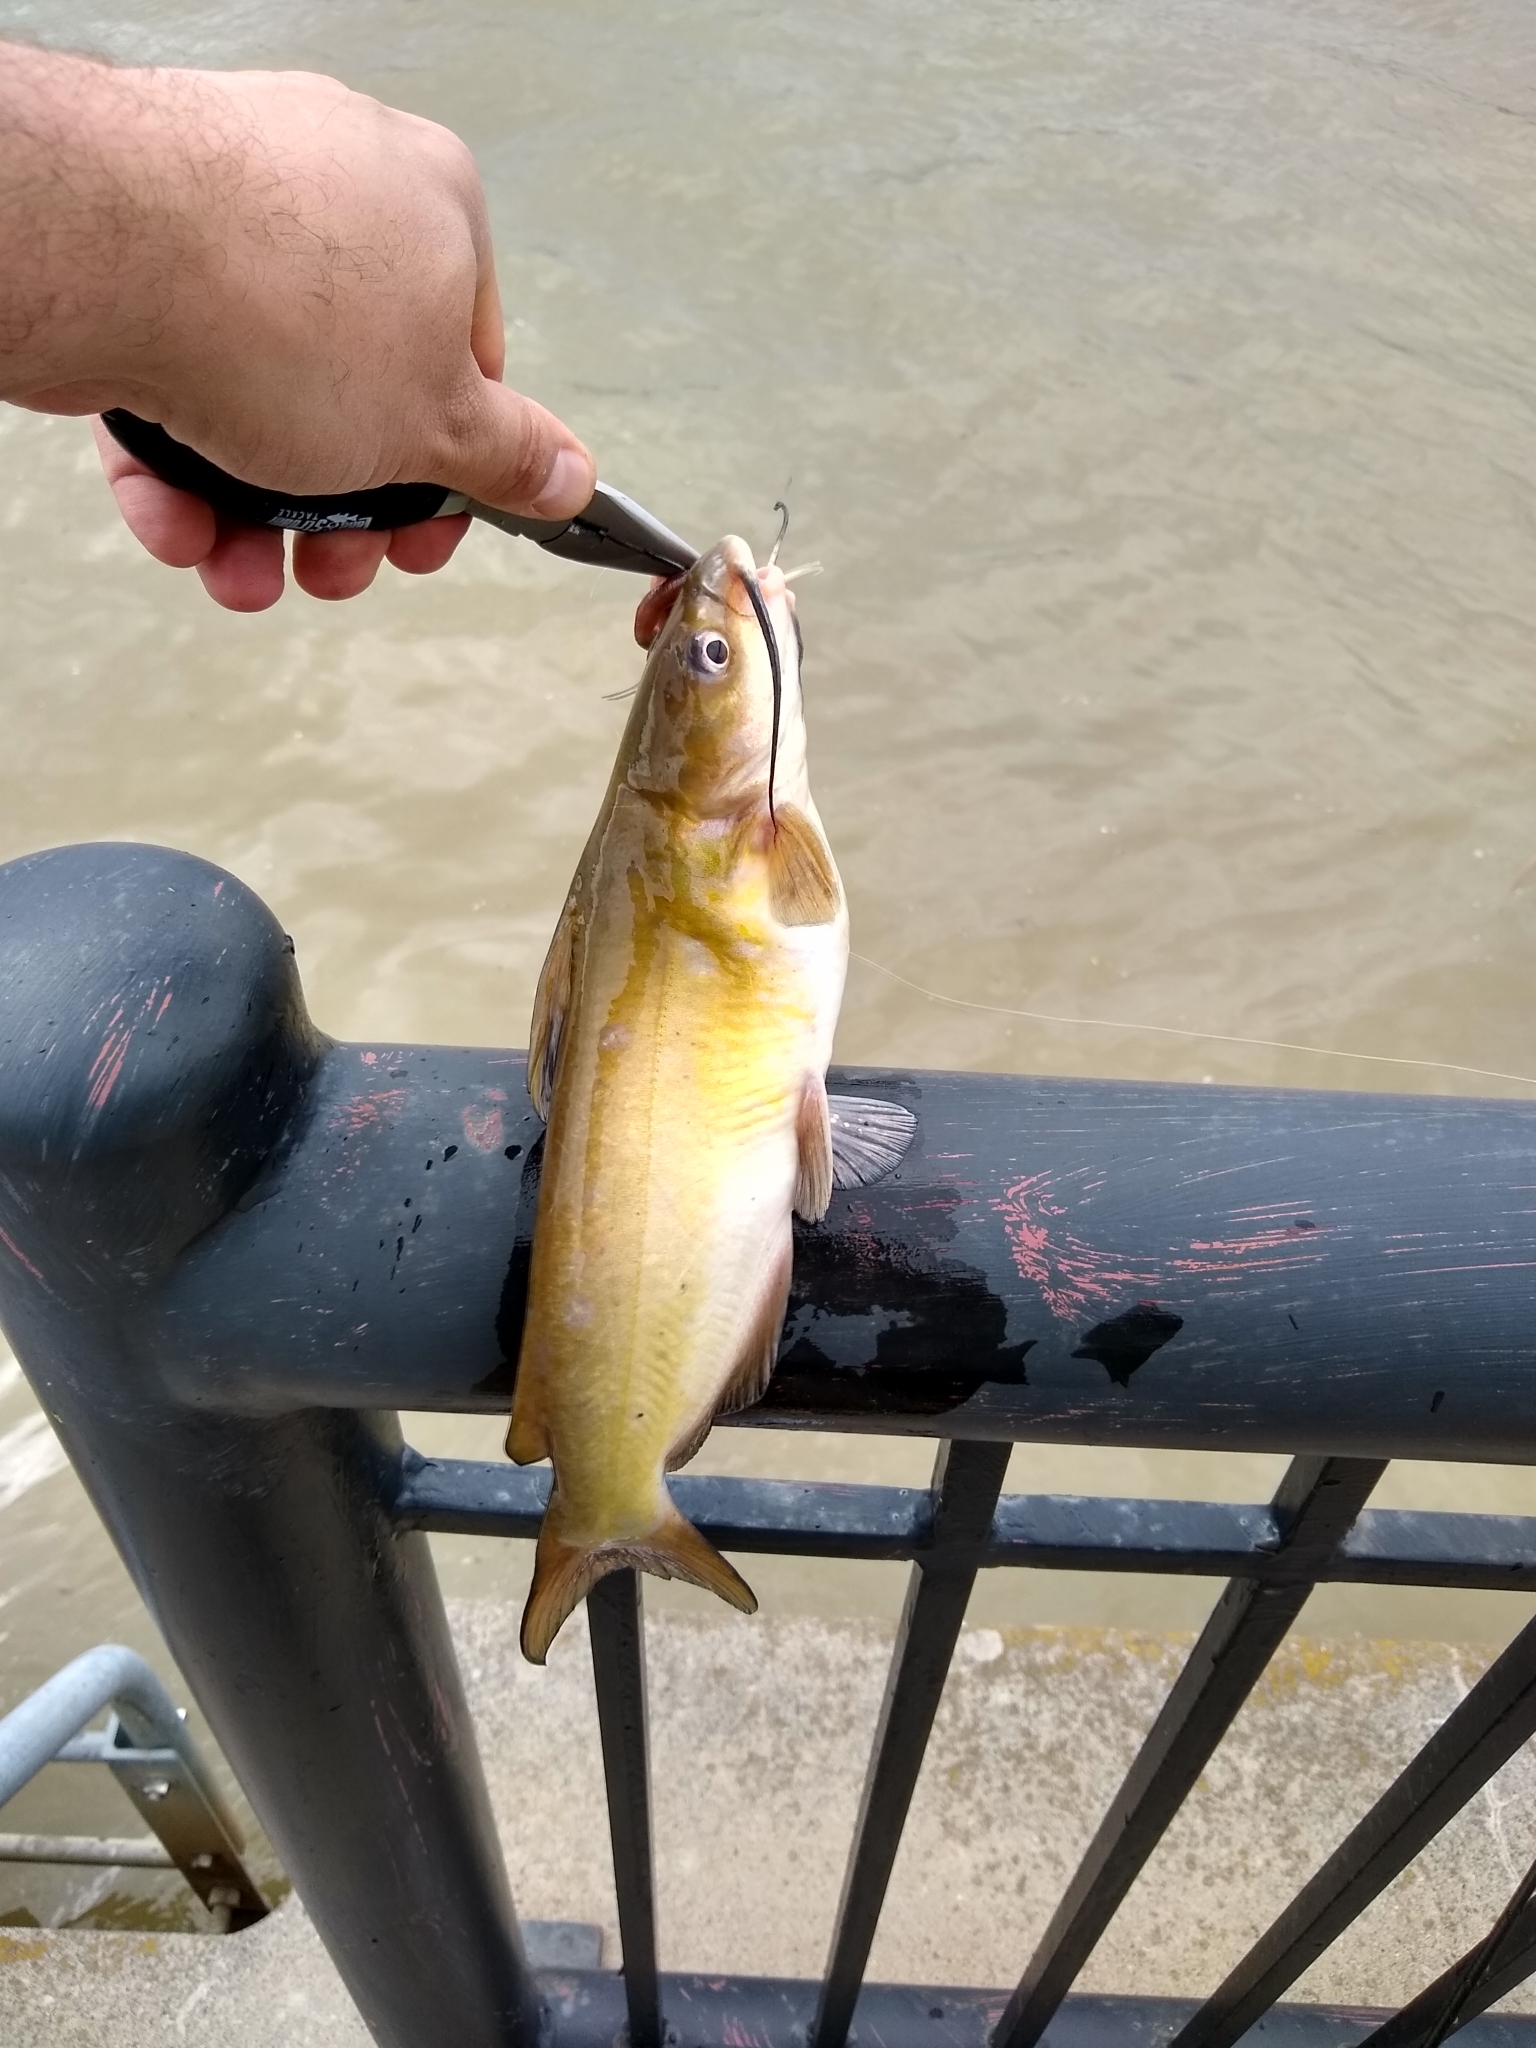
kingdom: Animalia
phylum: Chordata
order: Siluriformes
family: Ictaluridae
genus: Ictalurus
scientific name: Ictalurus punctatus
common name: Channel catfish
